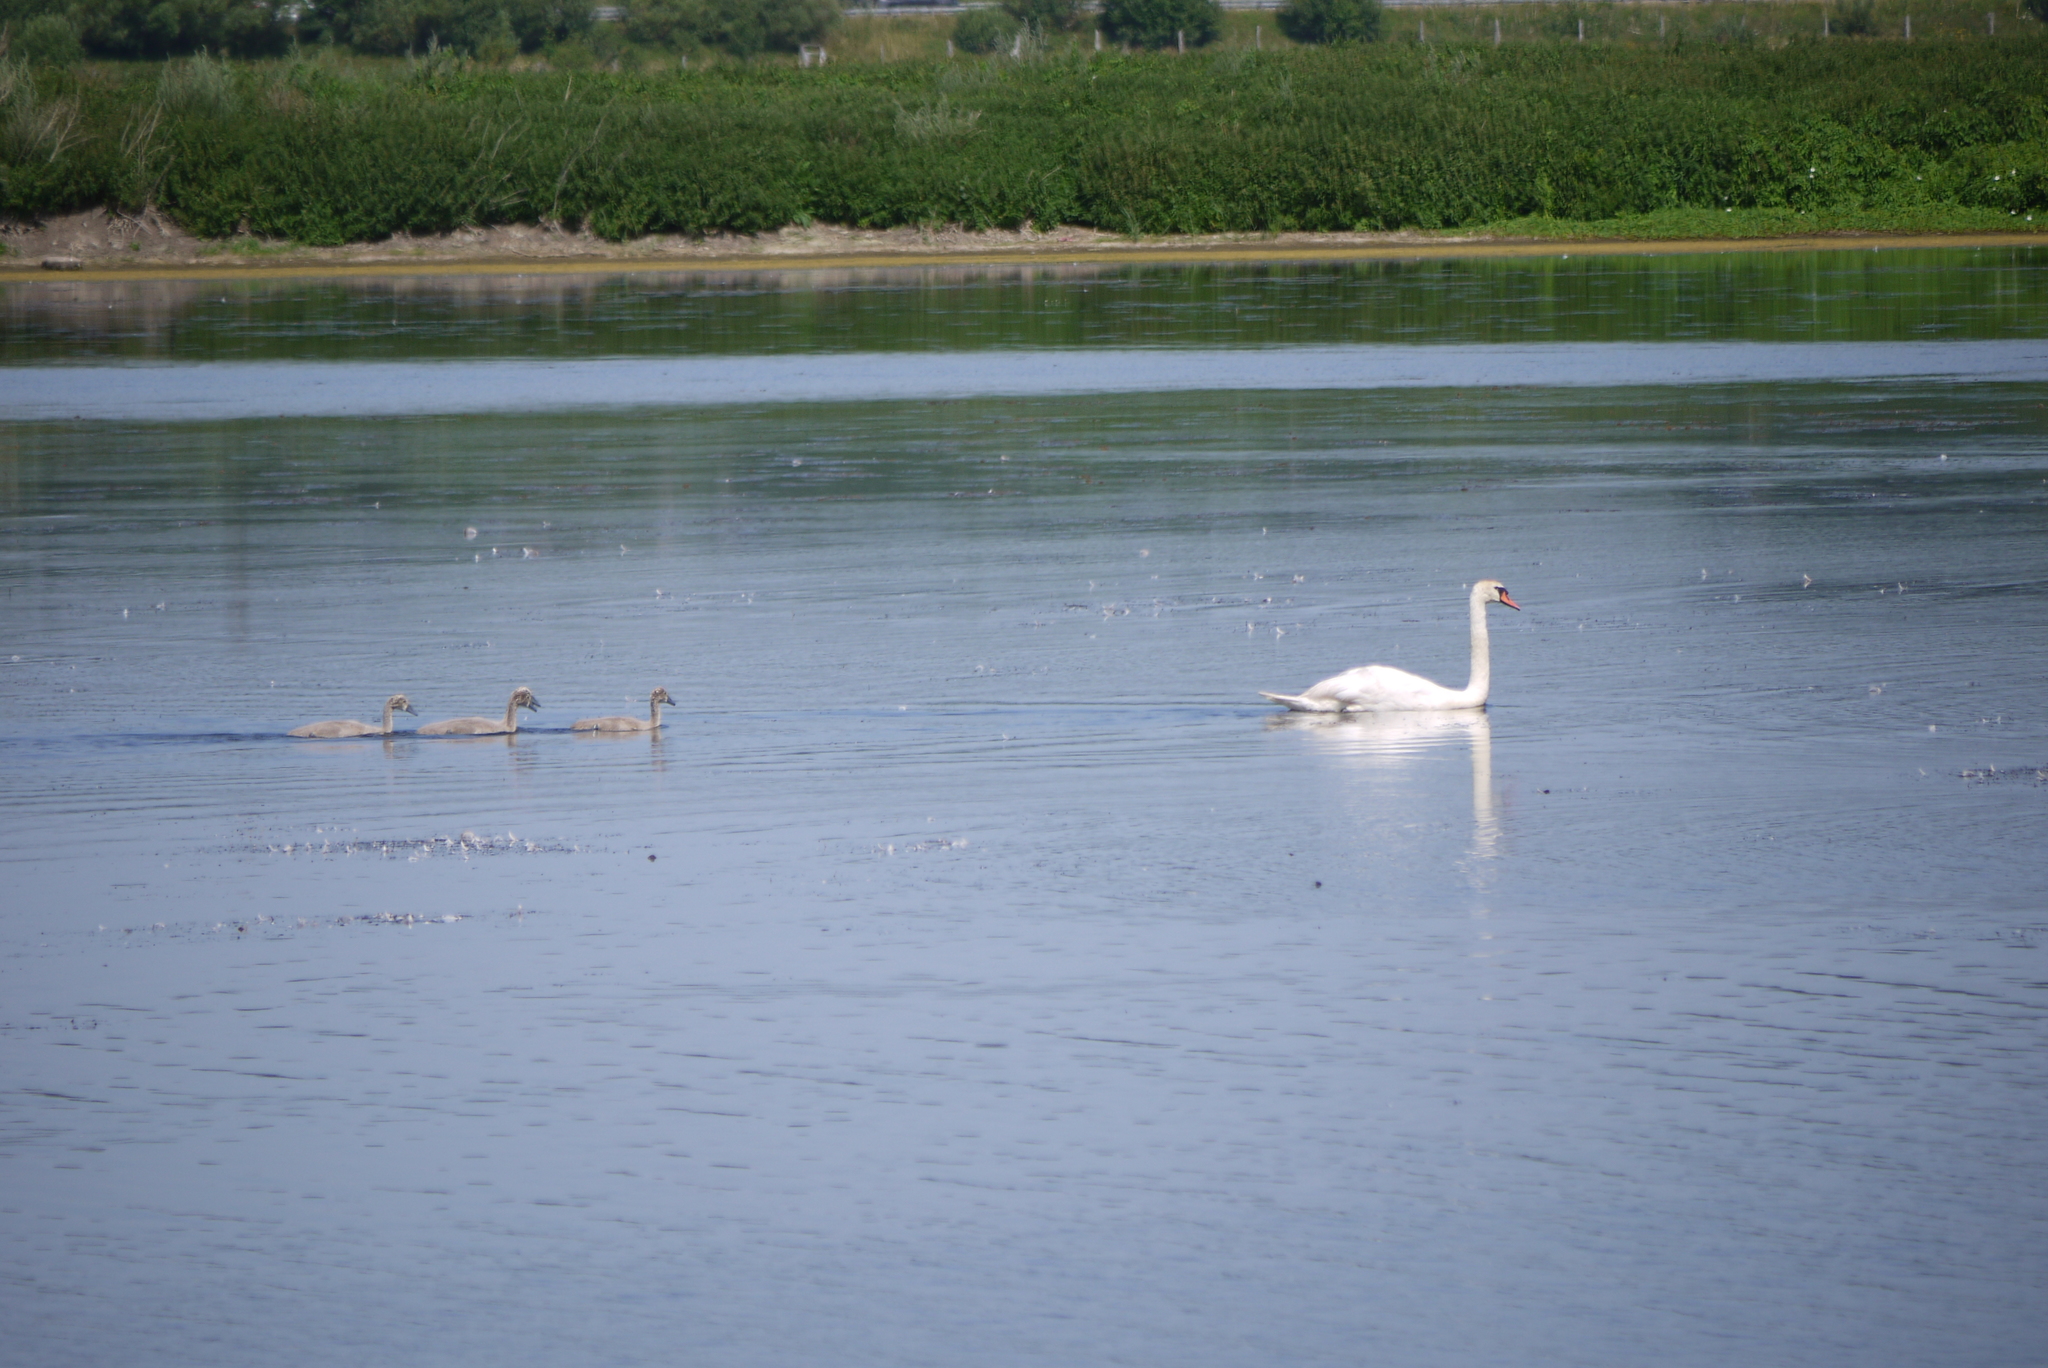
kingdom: Animalia
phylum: Chordata
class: Aves
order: Anseriformes
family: Anatidae
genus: Cygnus
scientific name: Cygnus olor
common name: Mute swan
